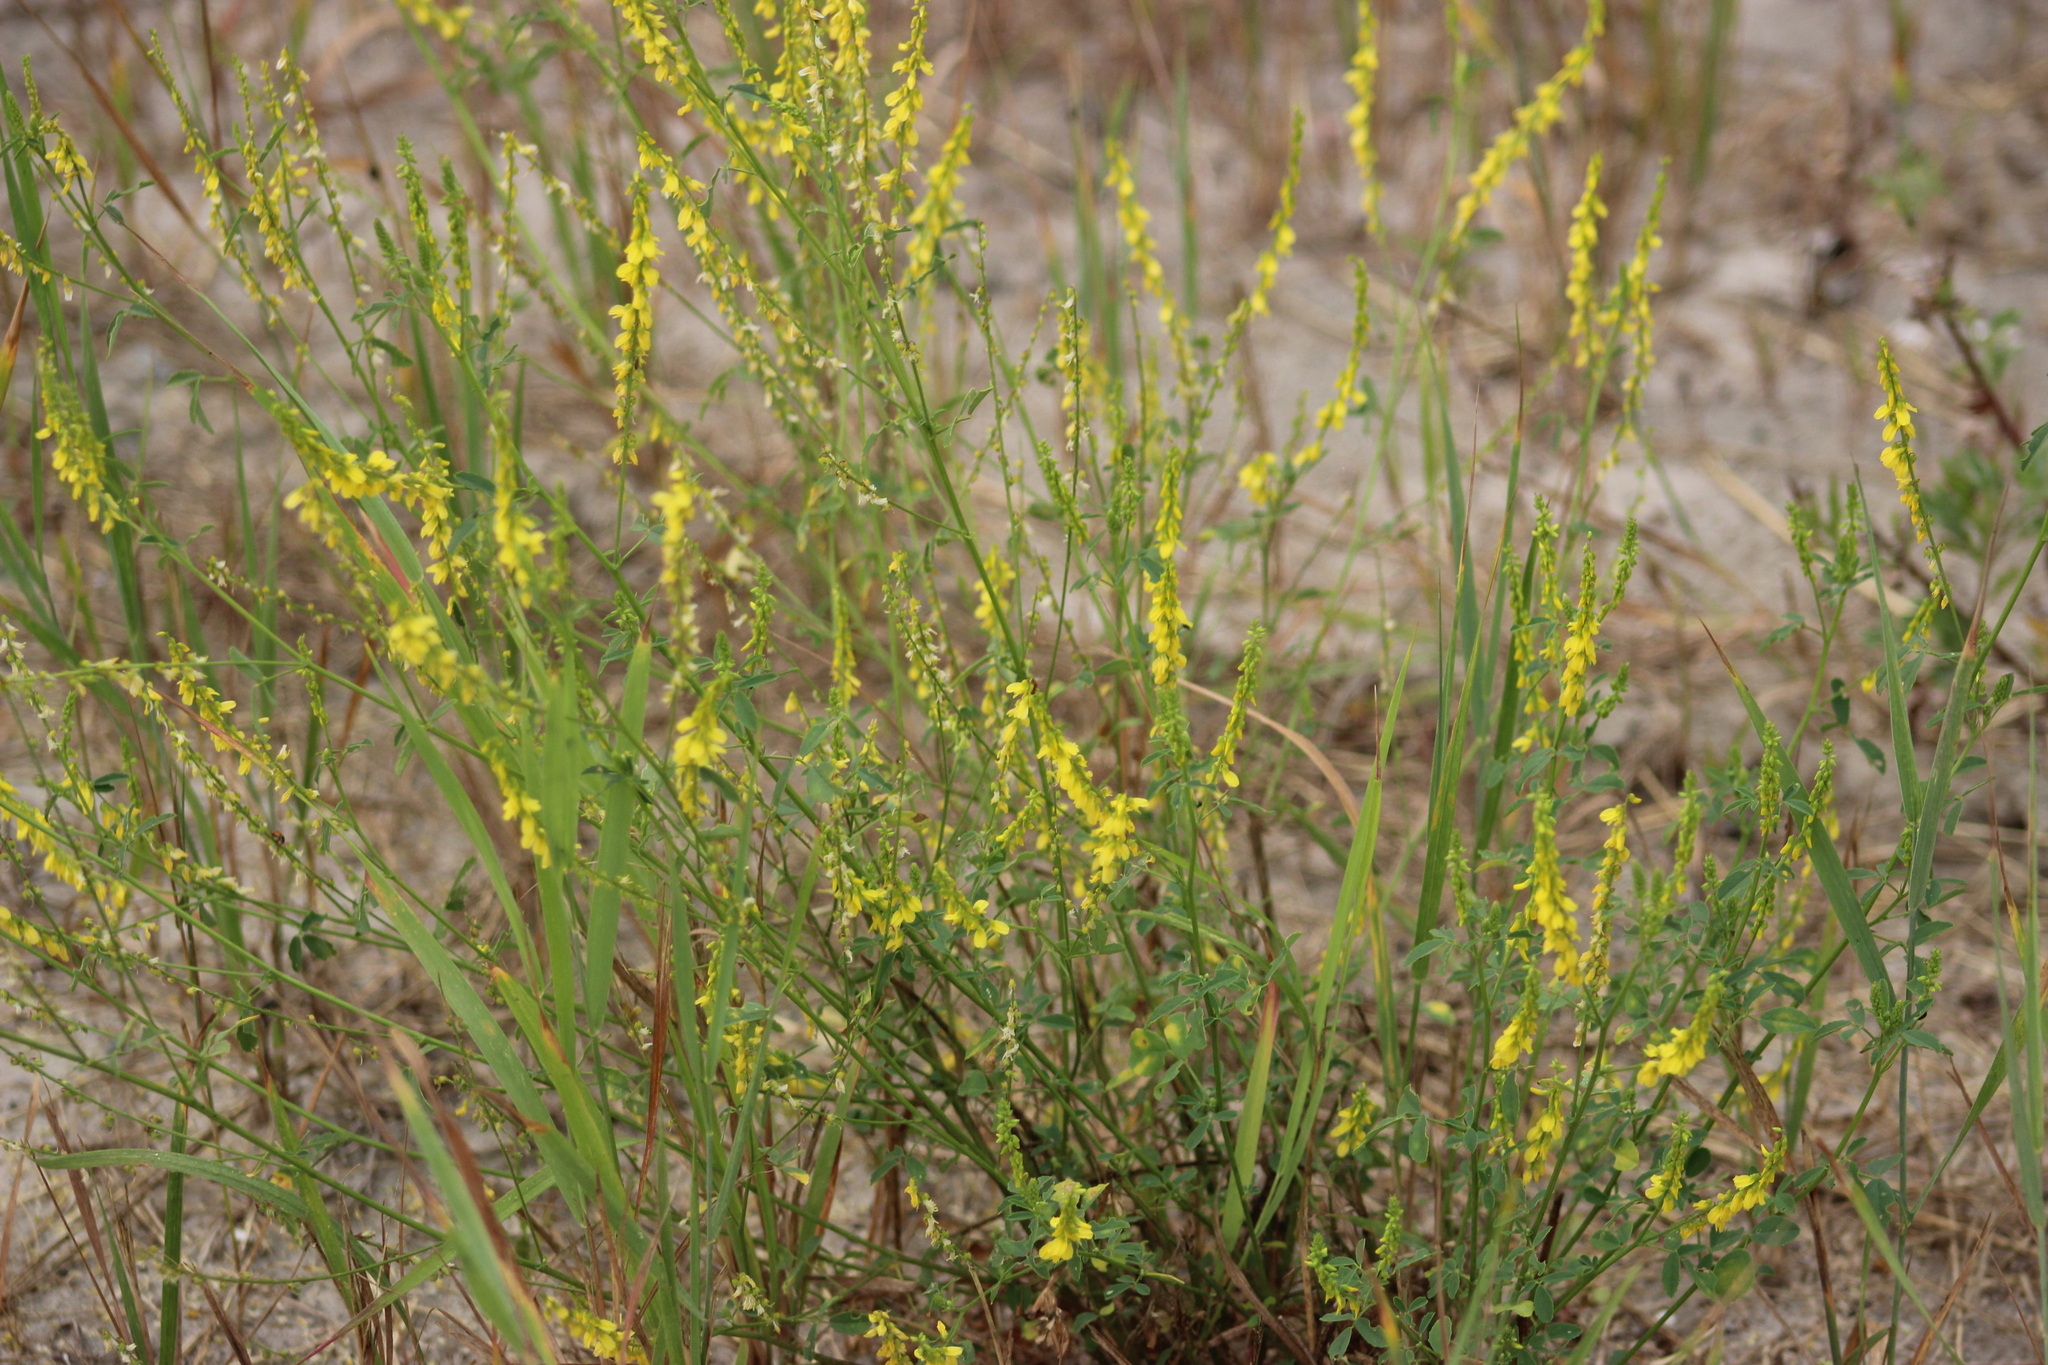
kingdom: Plantae
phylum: Tracheophyta
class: Magnoliopsida
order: Fabales
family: Fabaceae
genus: Melilotus
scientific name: Melilotus officinalis
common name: Sweetclover
